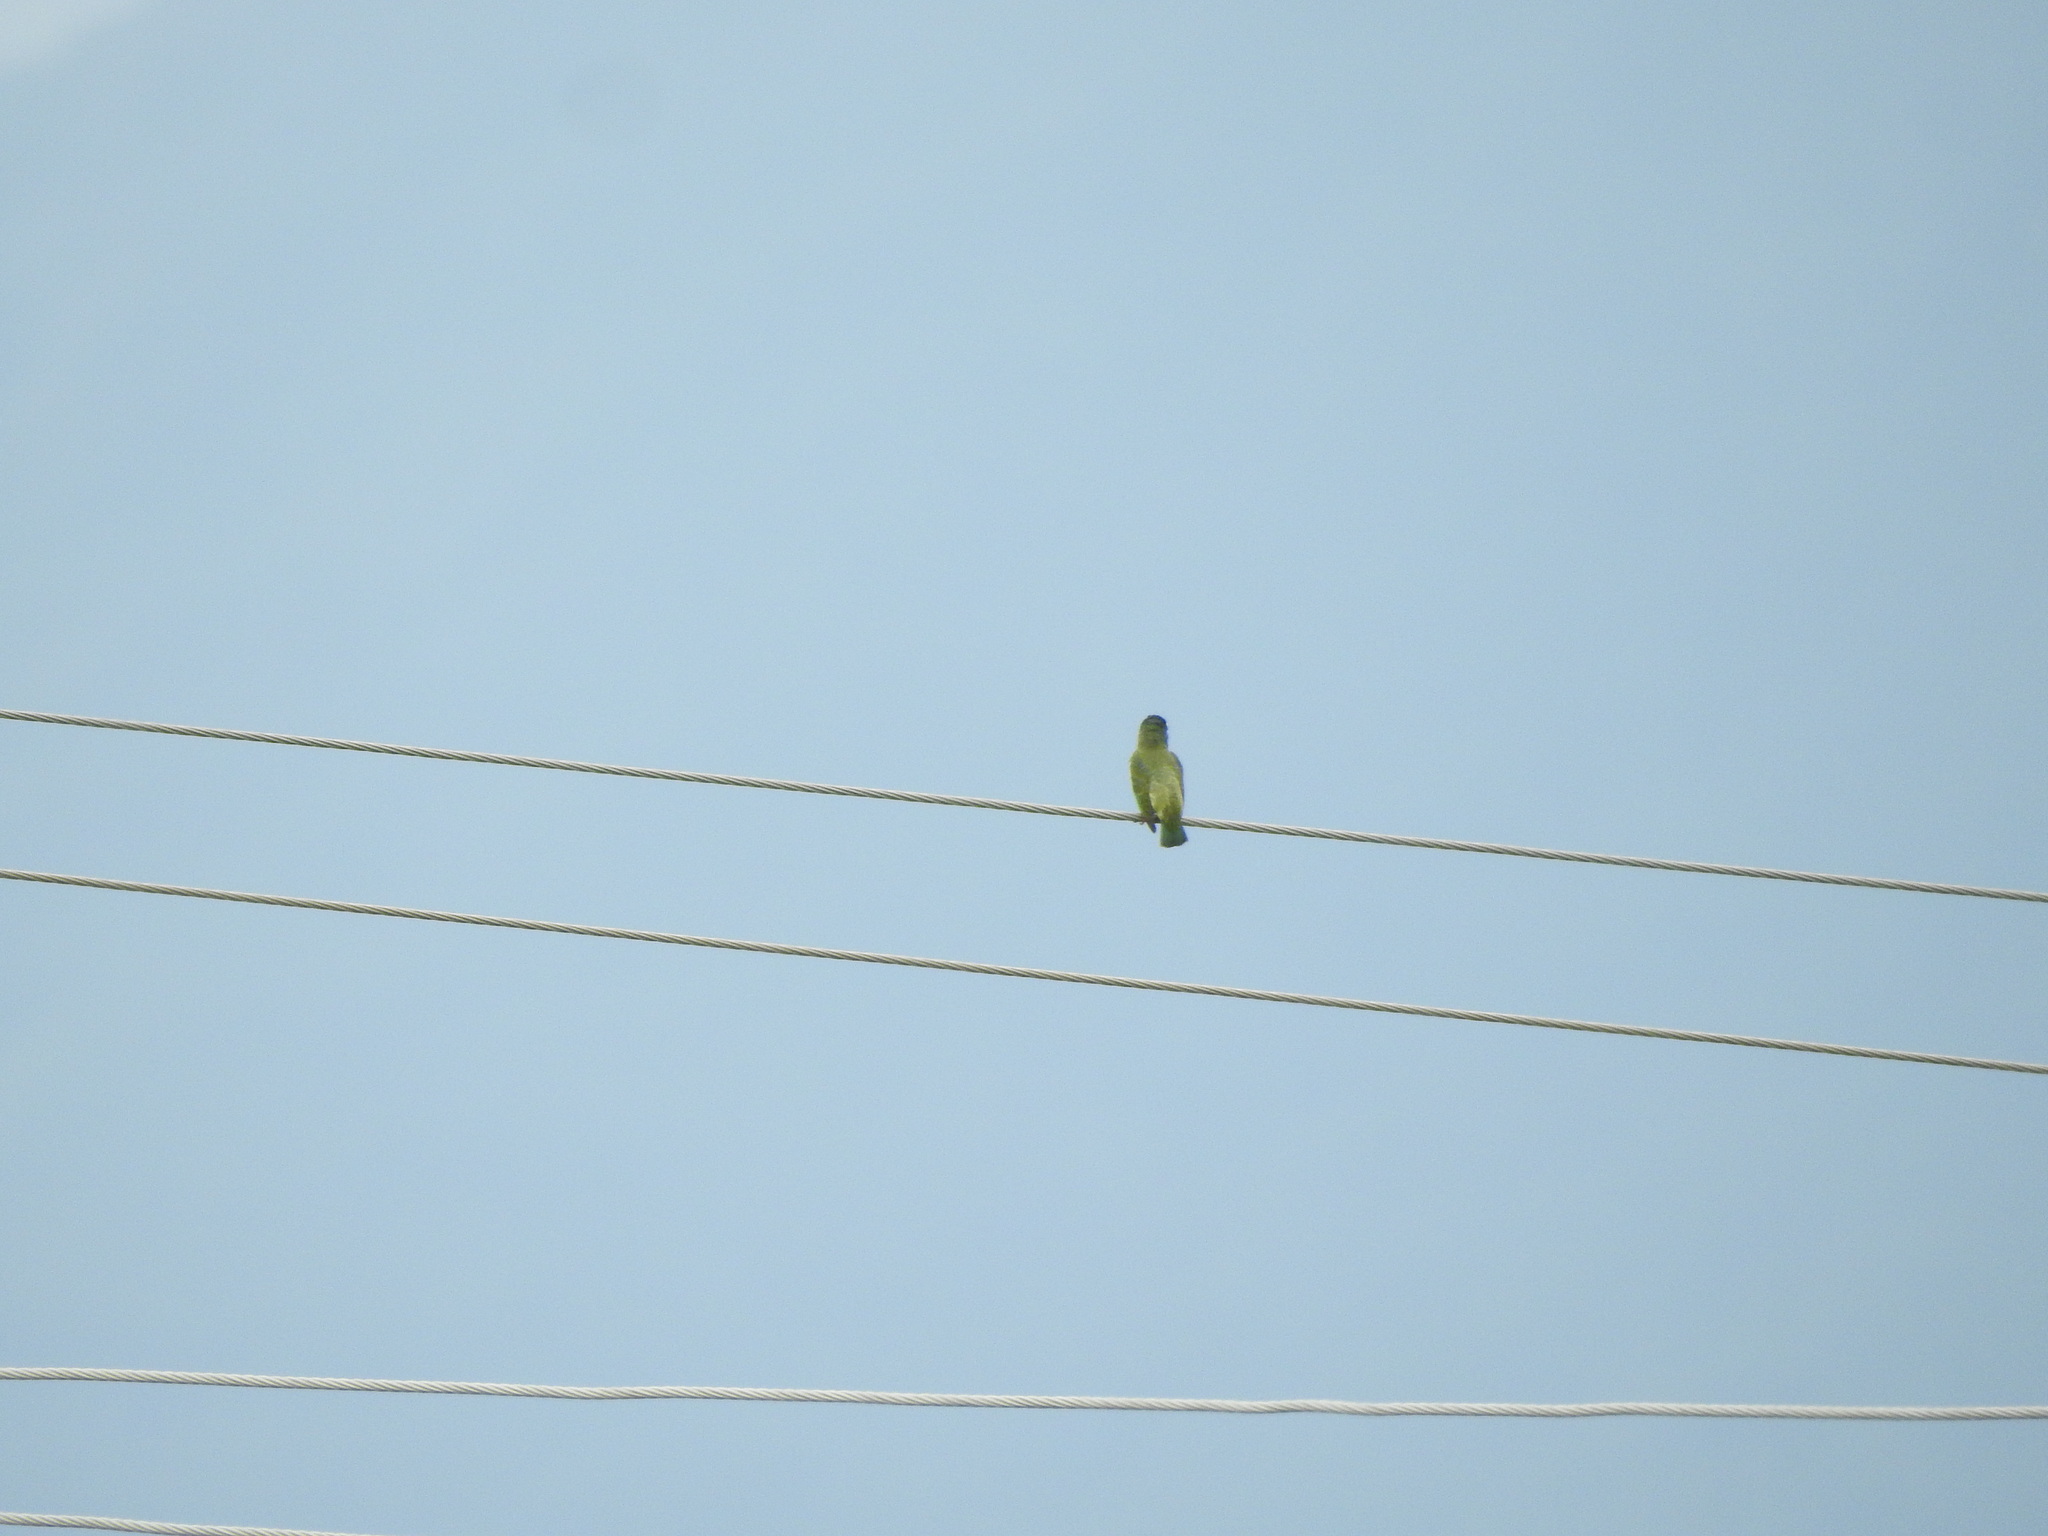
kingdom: Animalia
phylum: Chordata
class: Aves
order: Piciformes
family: Megalaimidae
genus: Psilopogon
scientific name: Psilopogon haemacephalus
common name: Coppersmith barbet
